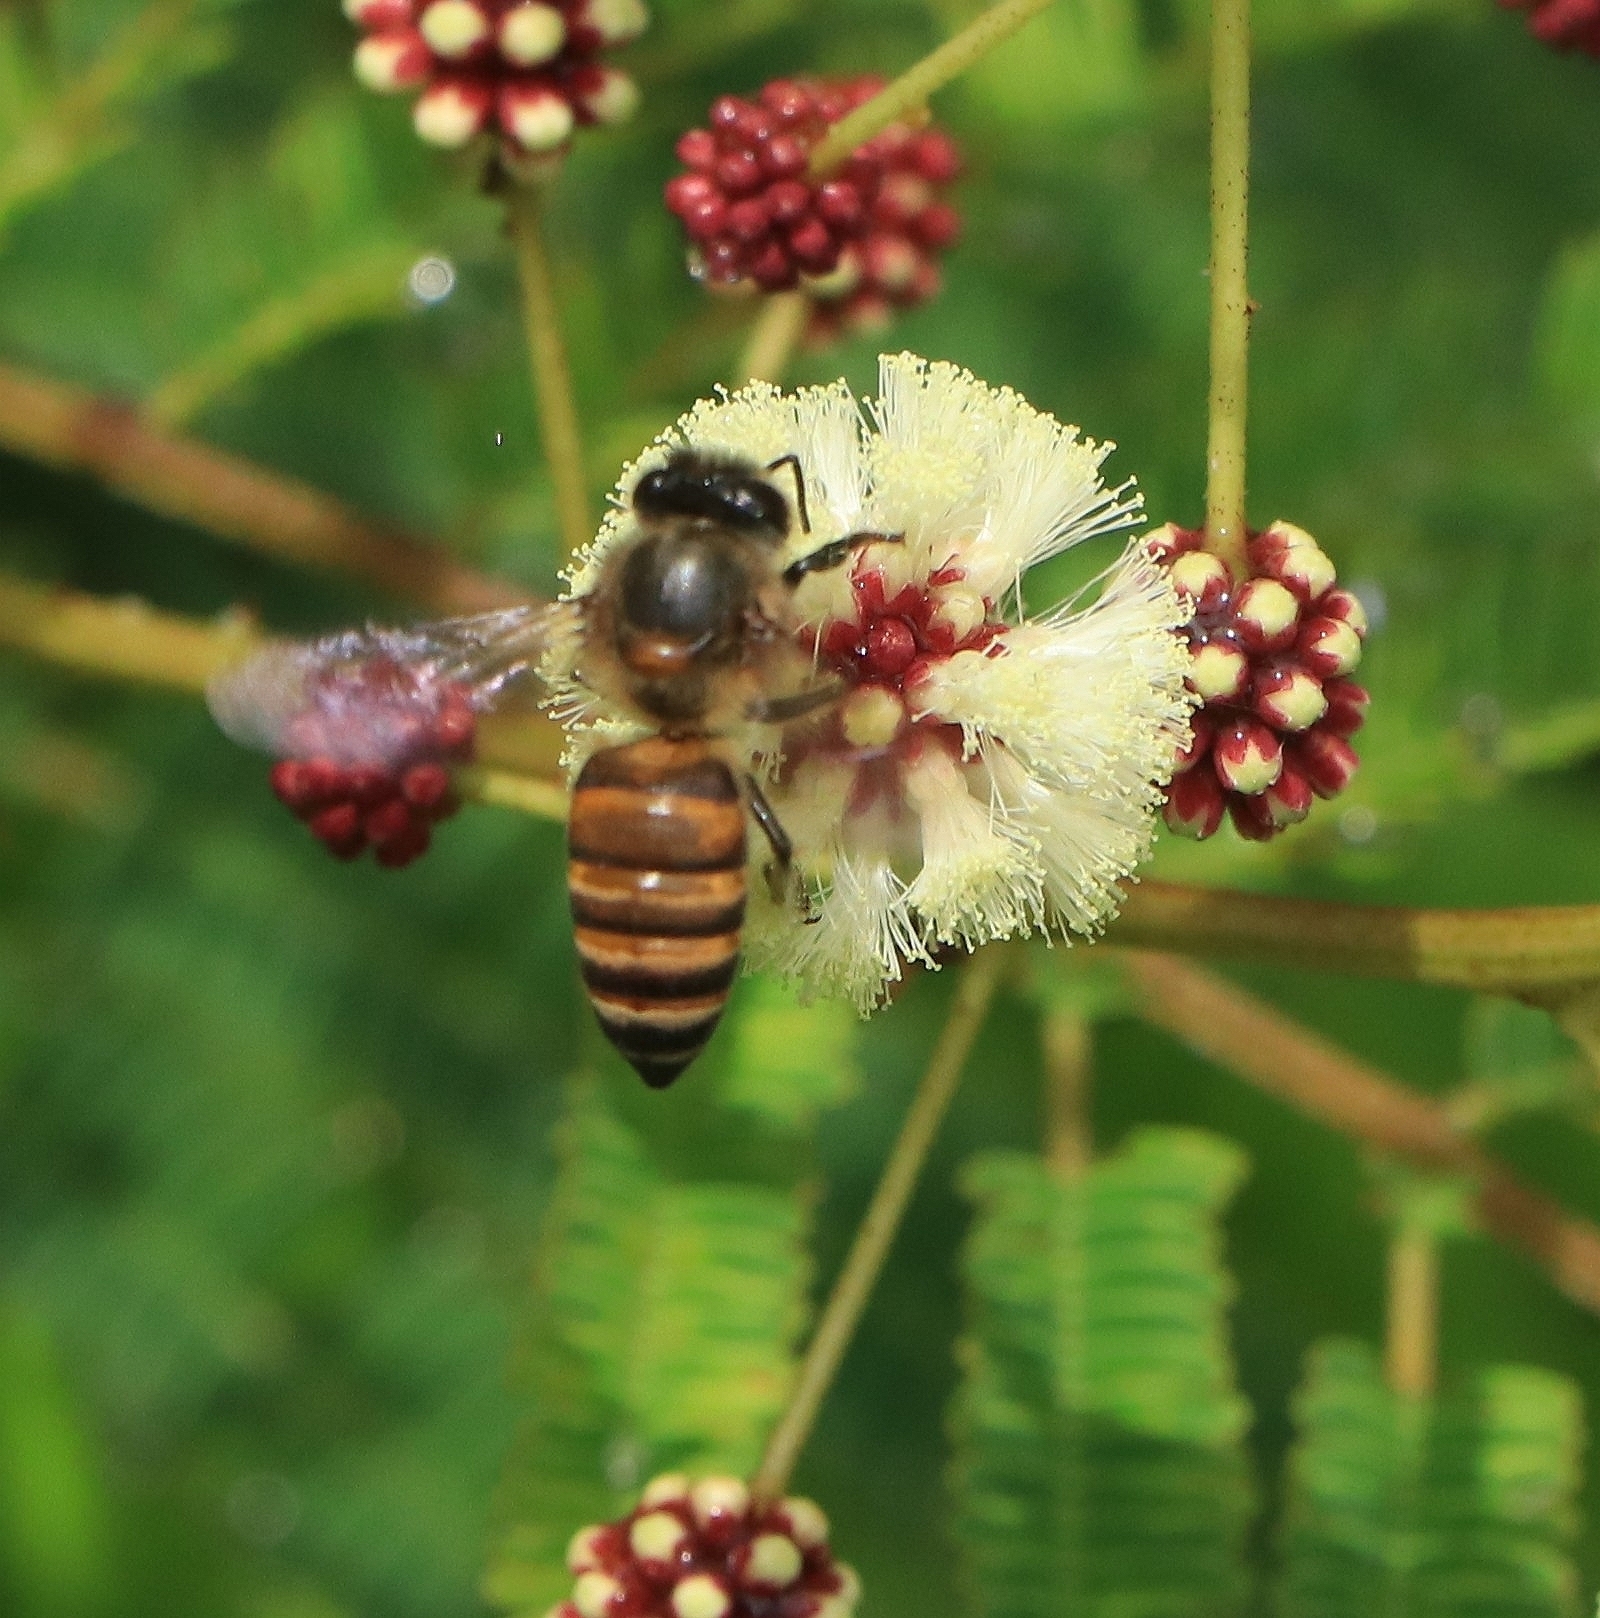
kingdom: Animalia
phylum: Arthropoda
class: Insecta
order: Hymenoptera
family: Apidae
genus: Apis
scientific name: Apis cerana
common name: Honey bee
